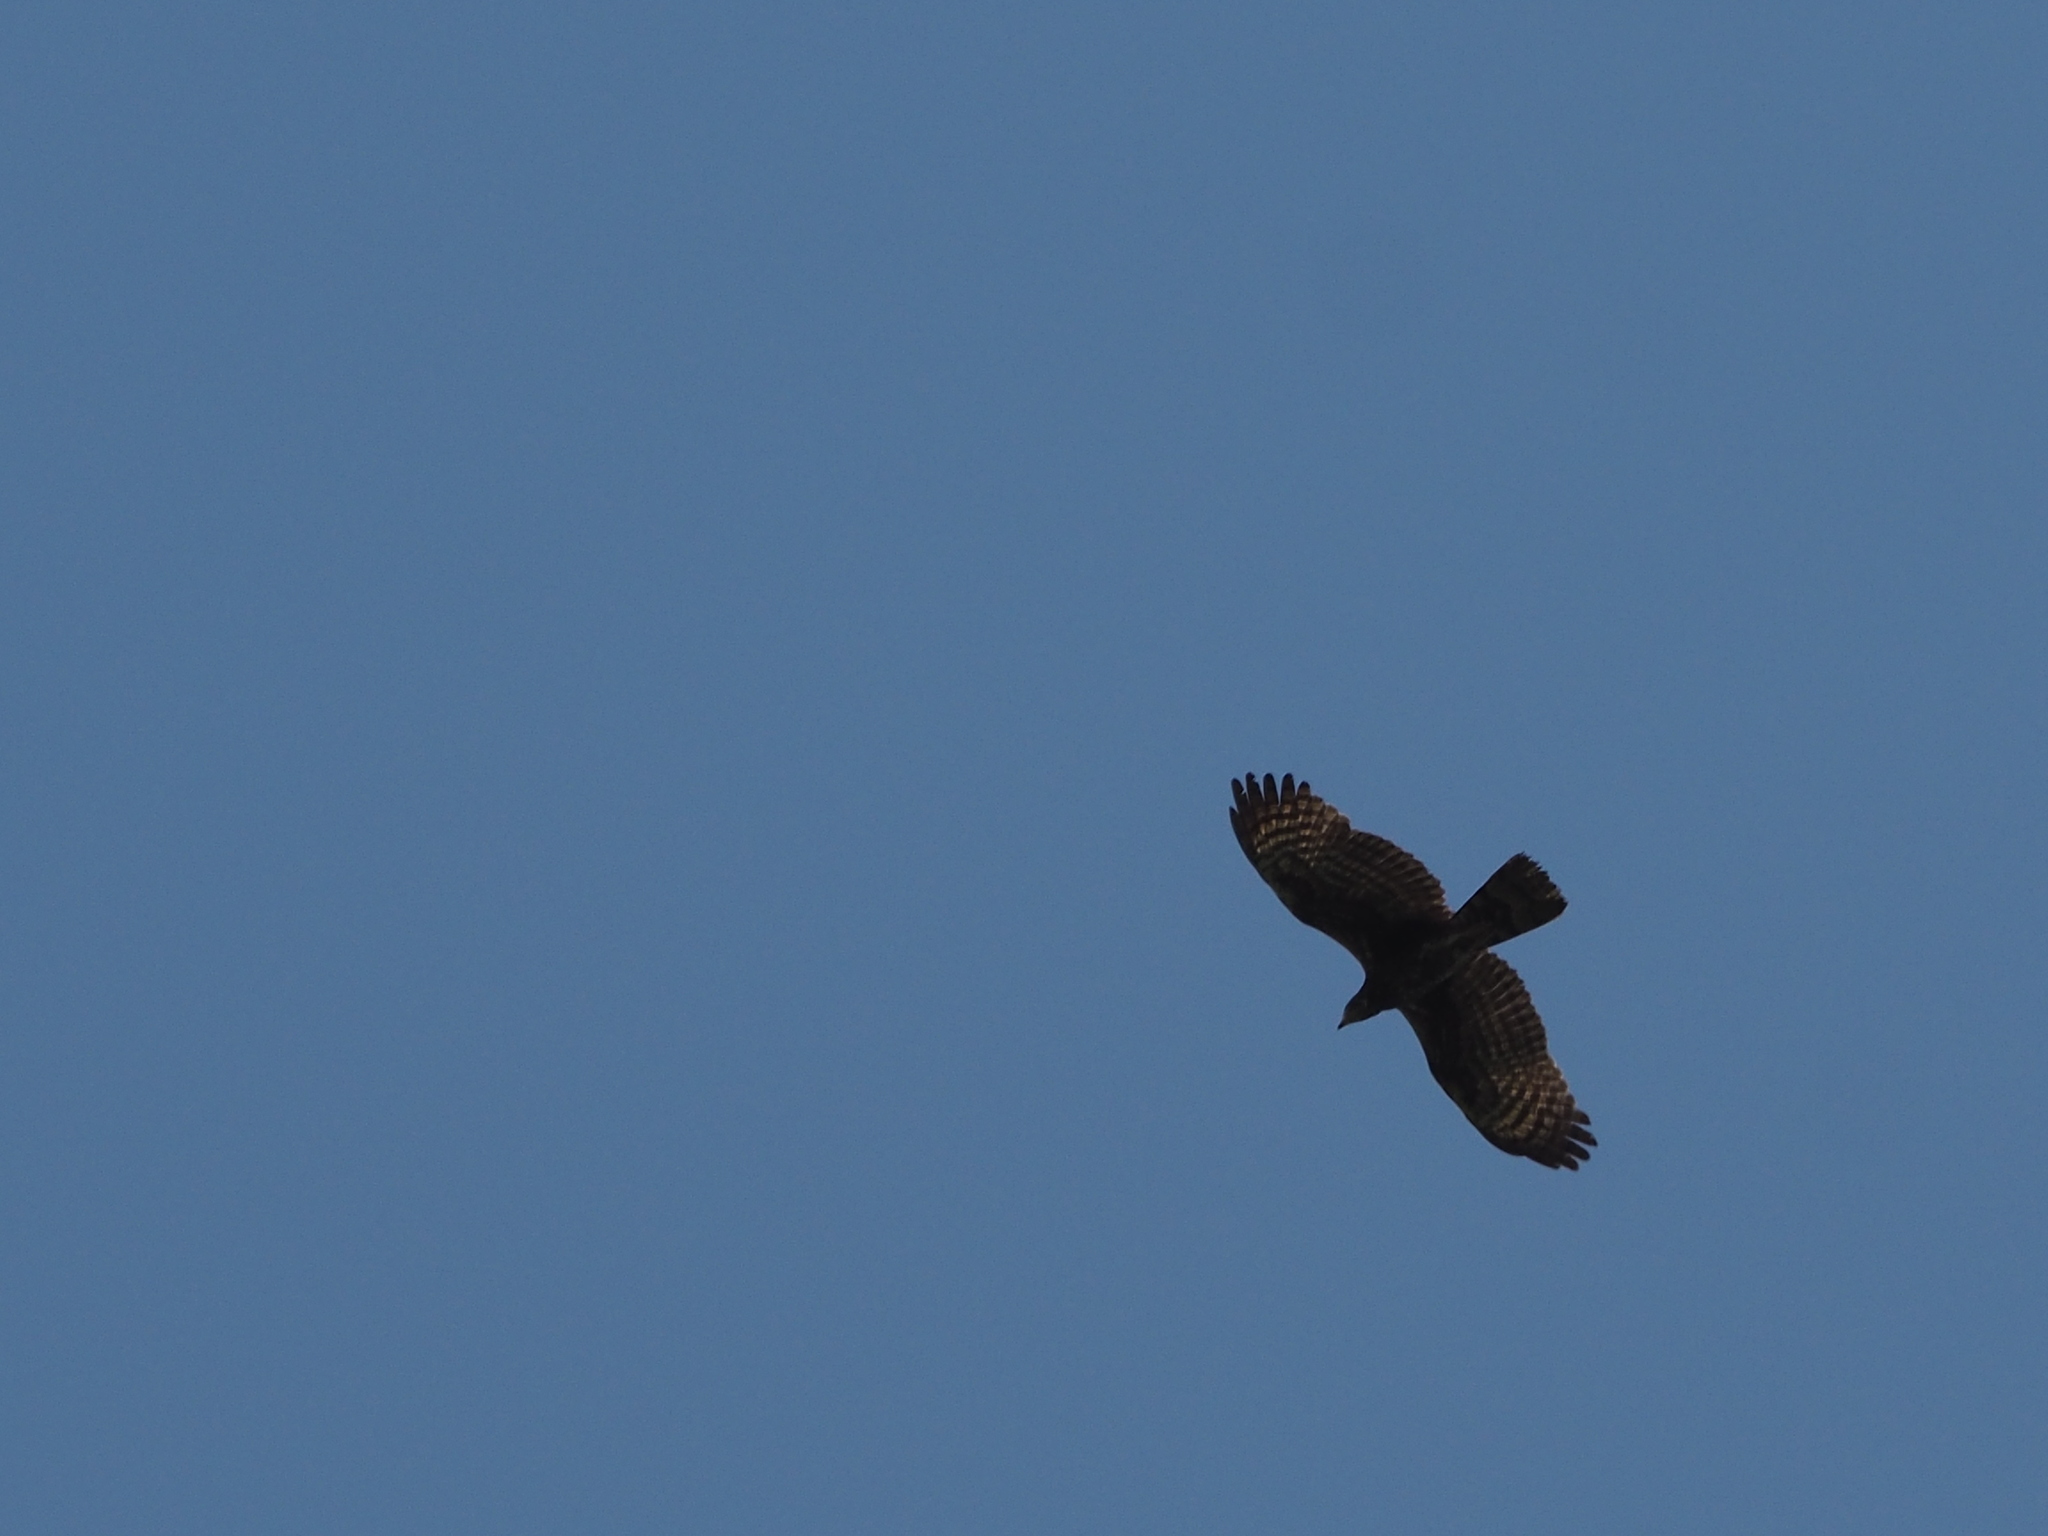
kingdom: Animalia
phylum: Chordata
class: Aves
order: Accipitriformes
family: Accipitridae
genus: Pernis
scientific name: Pernis ptilorhynchus
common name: Crested honey buzzard
